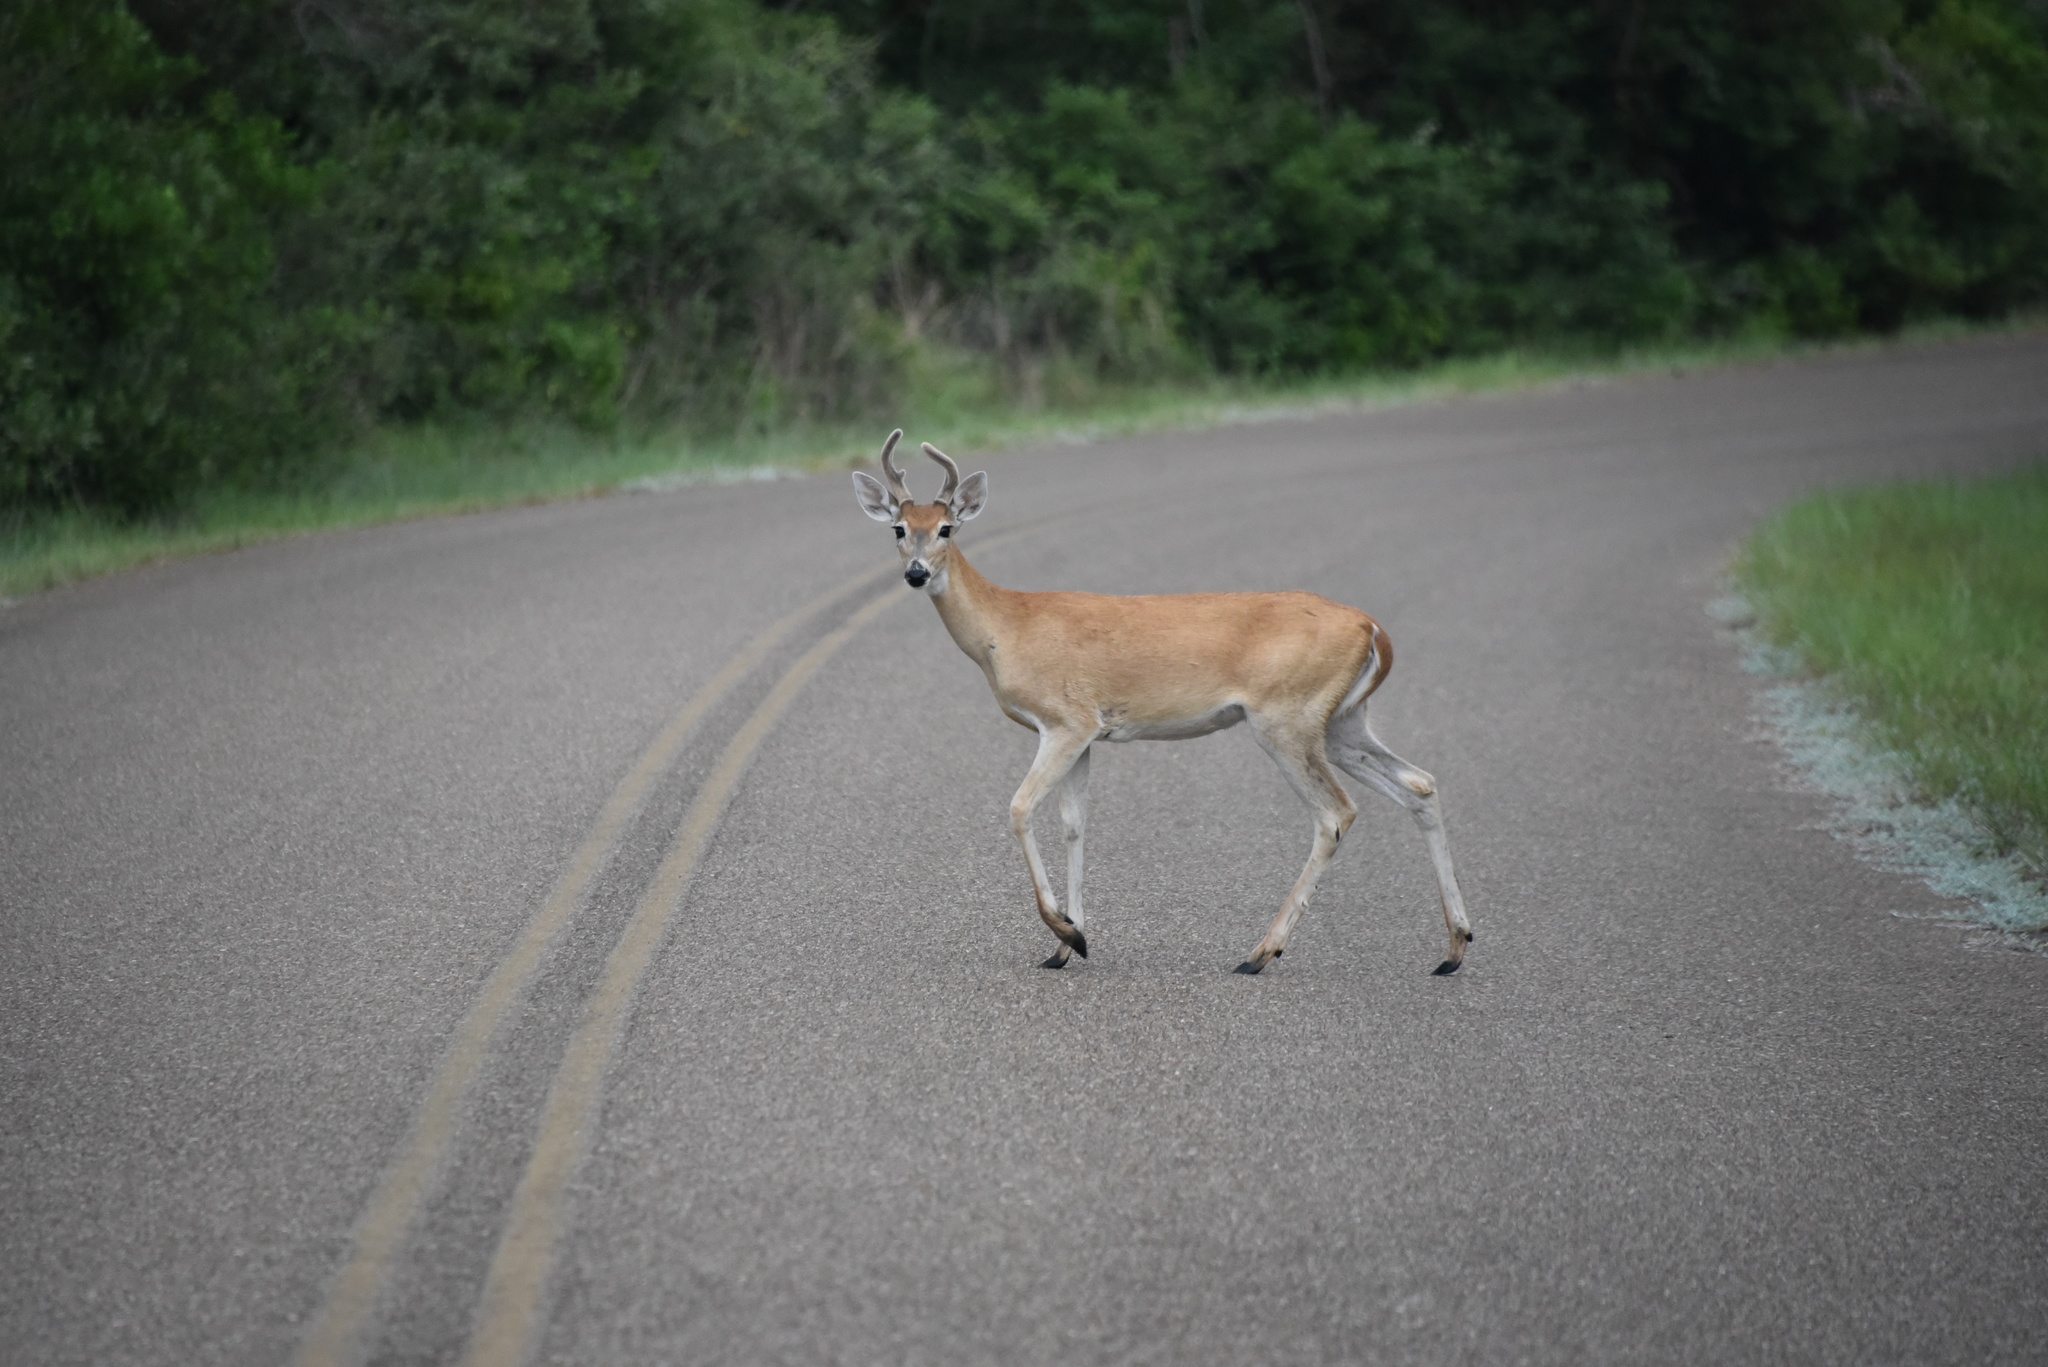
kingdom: Animalia
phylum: Chordata
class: Mammalia
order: Artiodactyla
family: Cervidae
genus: Odocoileus
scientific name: Odocoileus virginianus
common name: White-tailed deer
